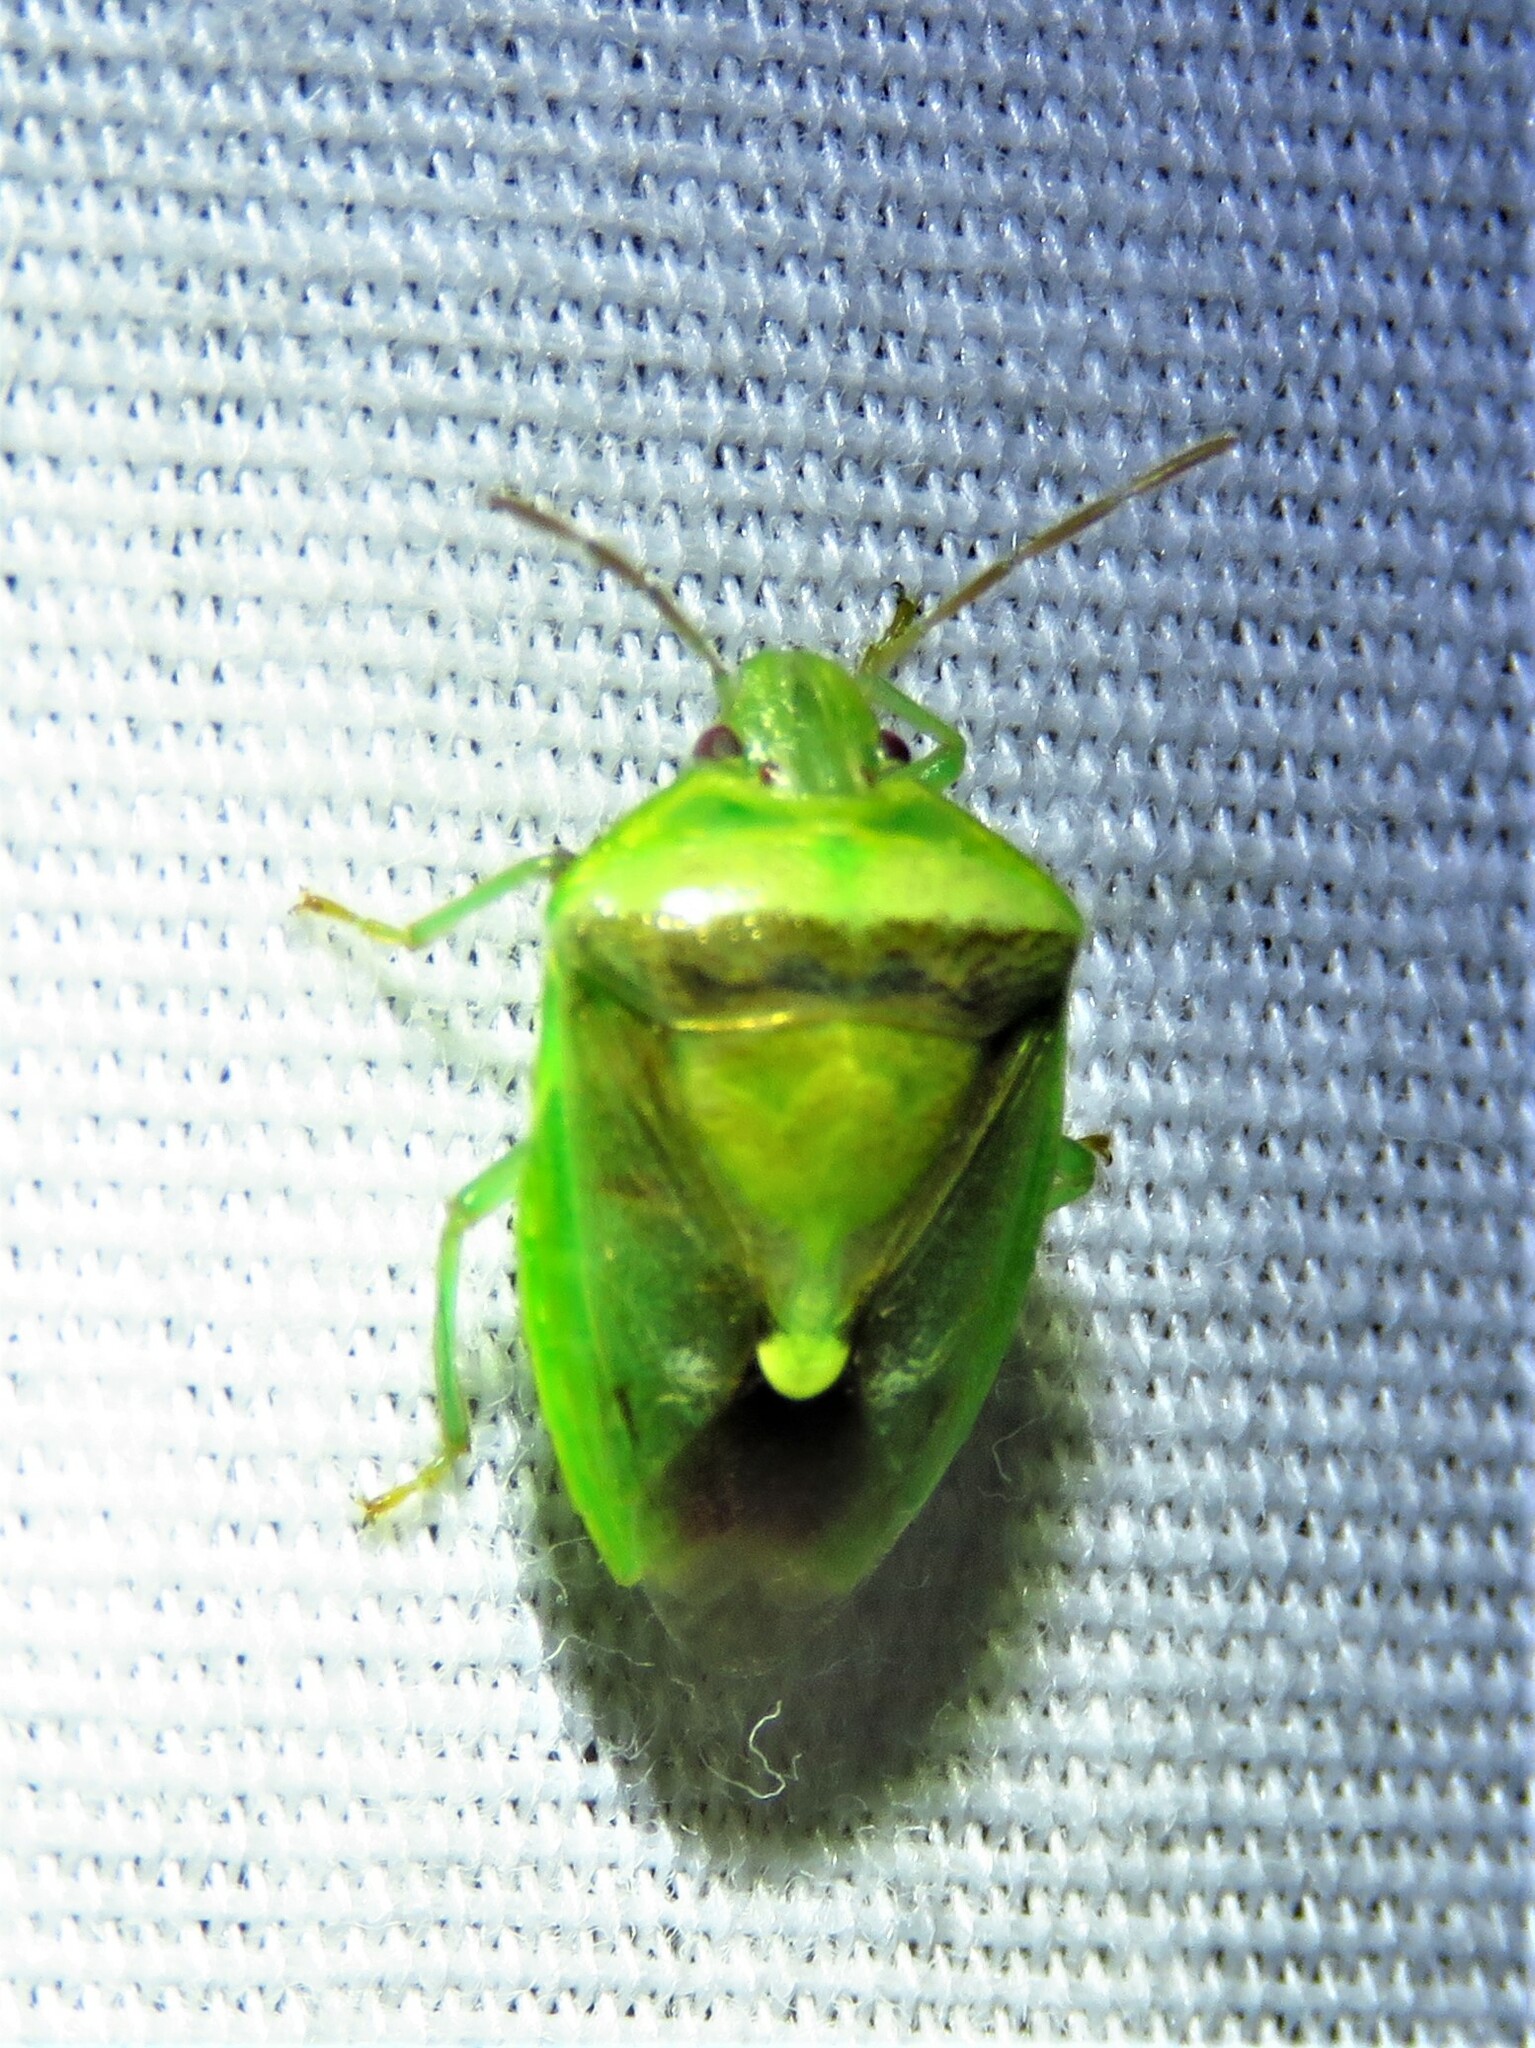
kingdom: Animalia
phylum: Arthropoda
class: Insecta
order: Hemiptera
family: Pentatomidae
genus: Banasa
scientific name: Banasa dimidiata
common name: Green burgundy stink bug
